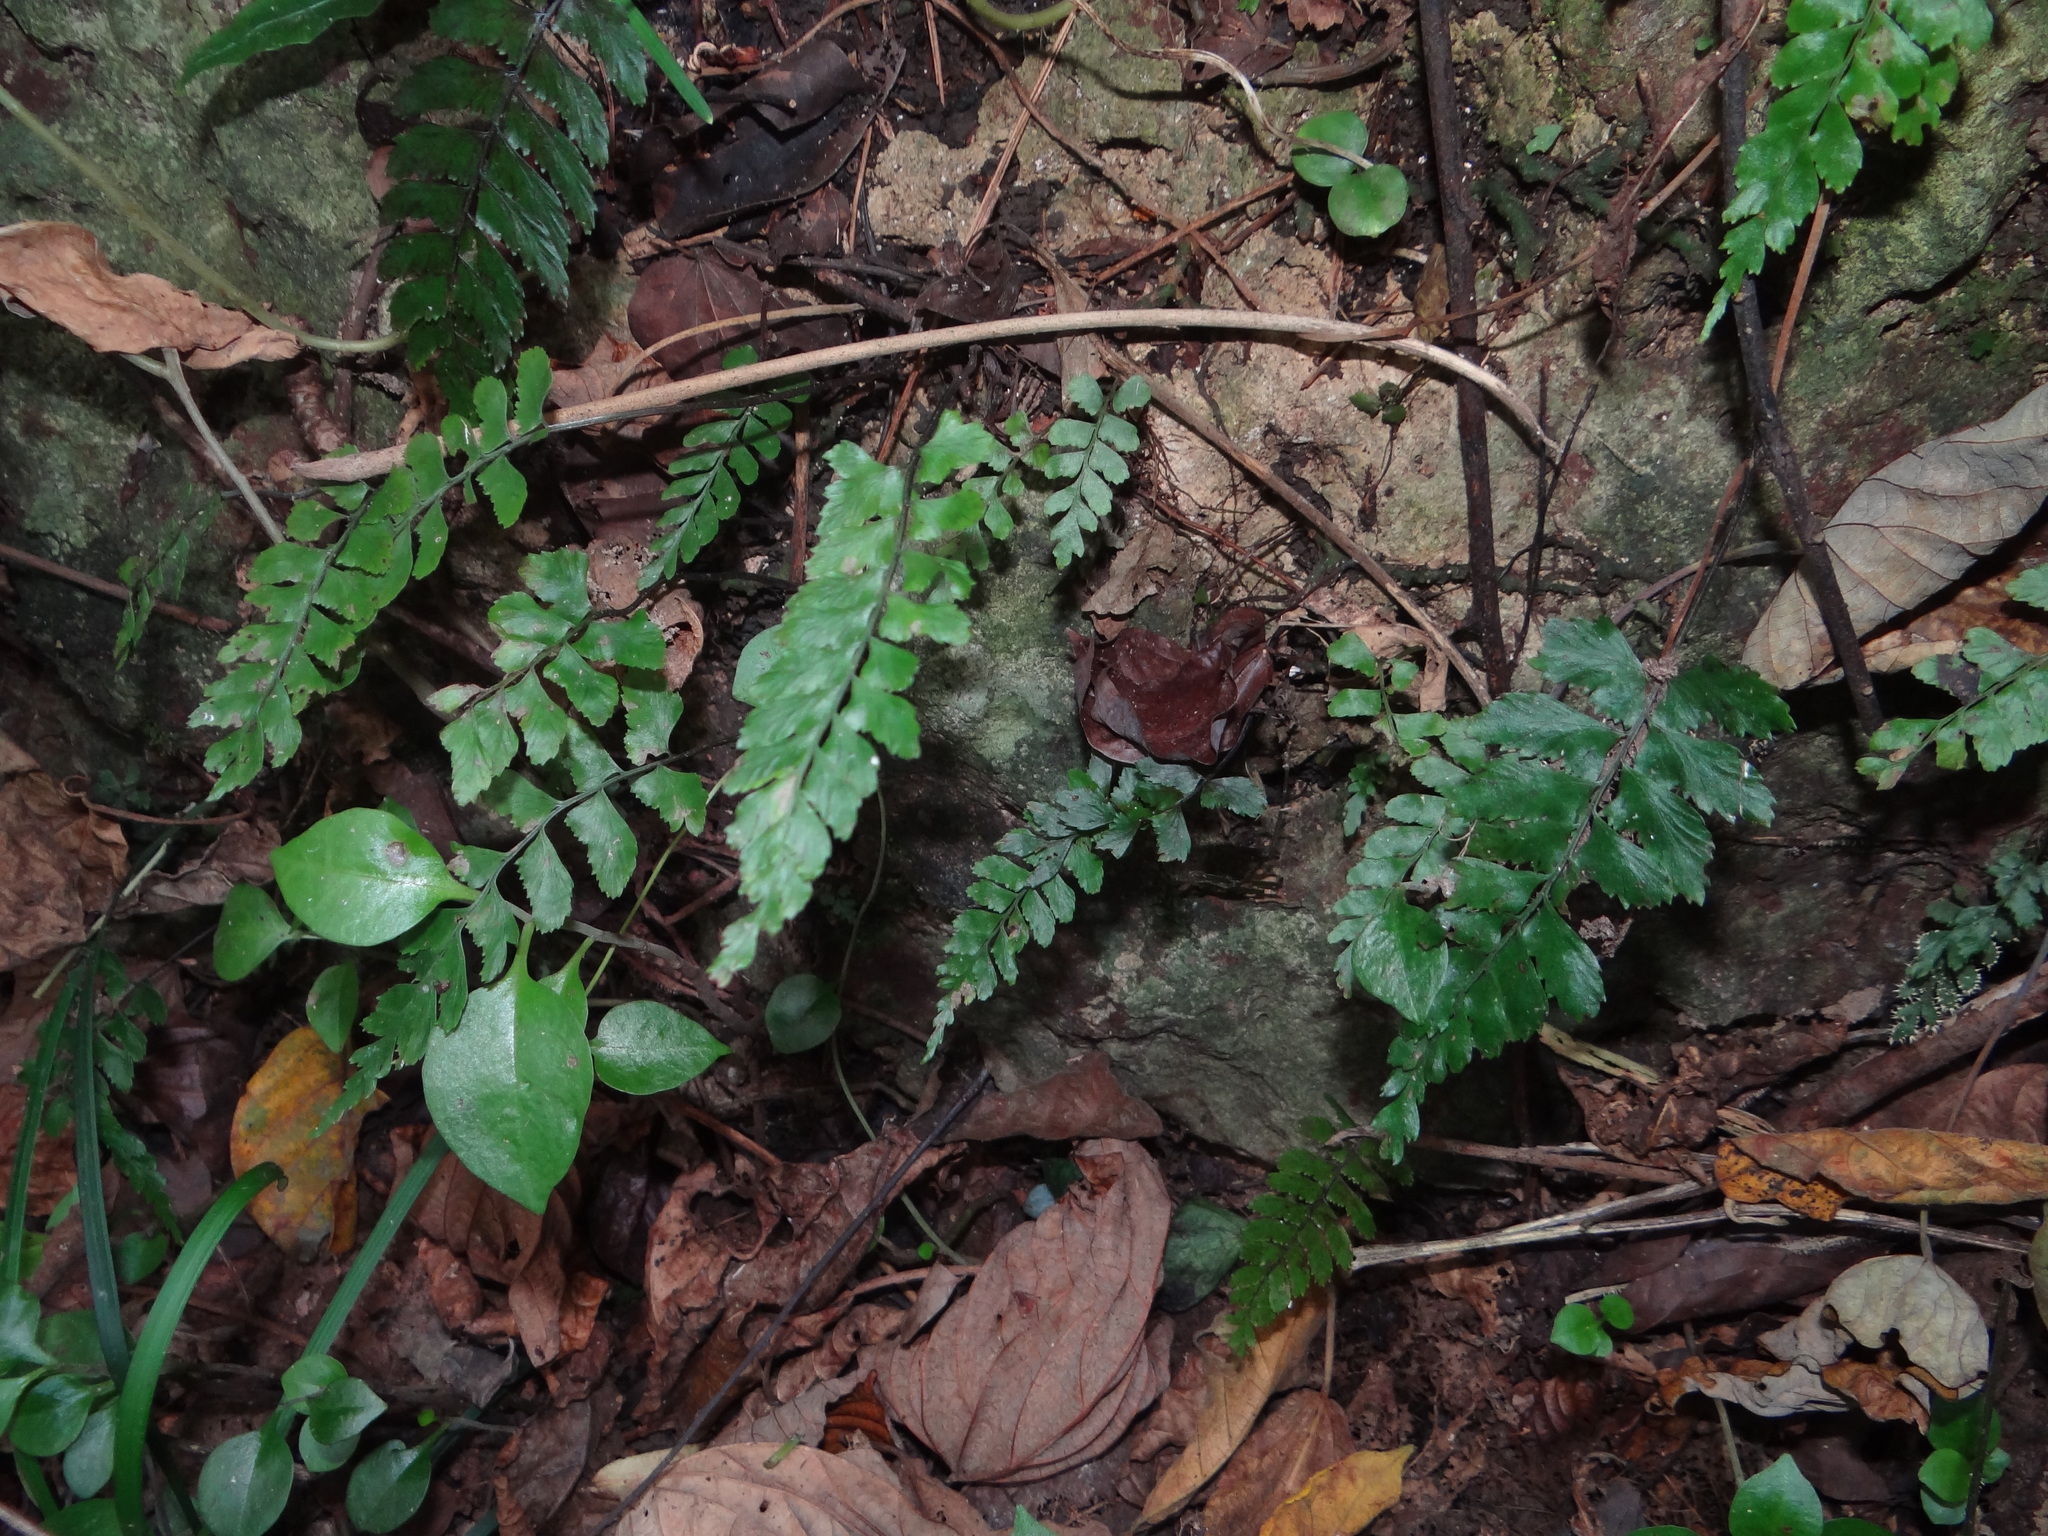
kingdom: Plantae
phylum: Tracheophyta
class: Polypodiopsida
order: Polypodiales
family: Aspleniaceae
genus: Hymenasplenium
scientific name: Hymenasplenium subnormale
